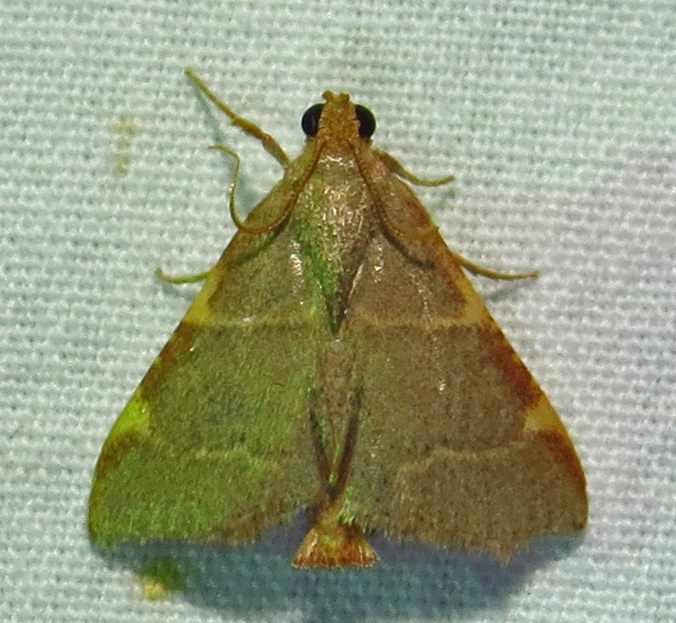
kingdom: Animalia
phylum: Arthropoda
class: Insecta
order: Lepidoptera
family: Pyralidae
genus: Hypsopygia
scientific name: Hypsopygia binodulalis
